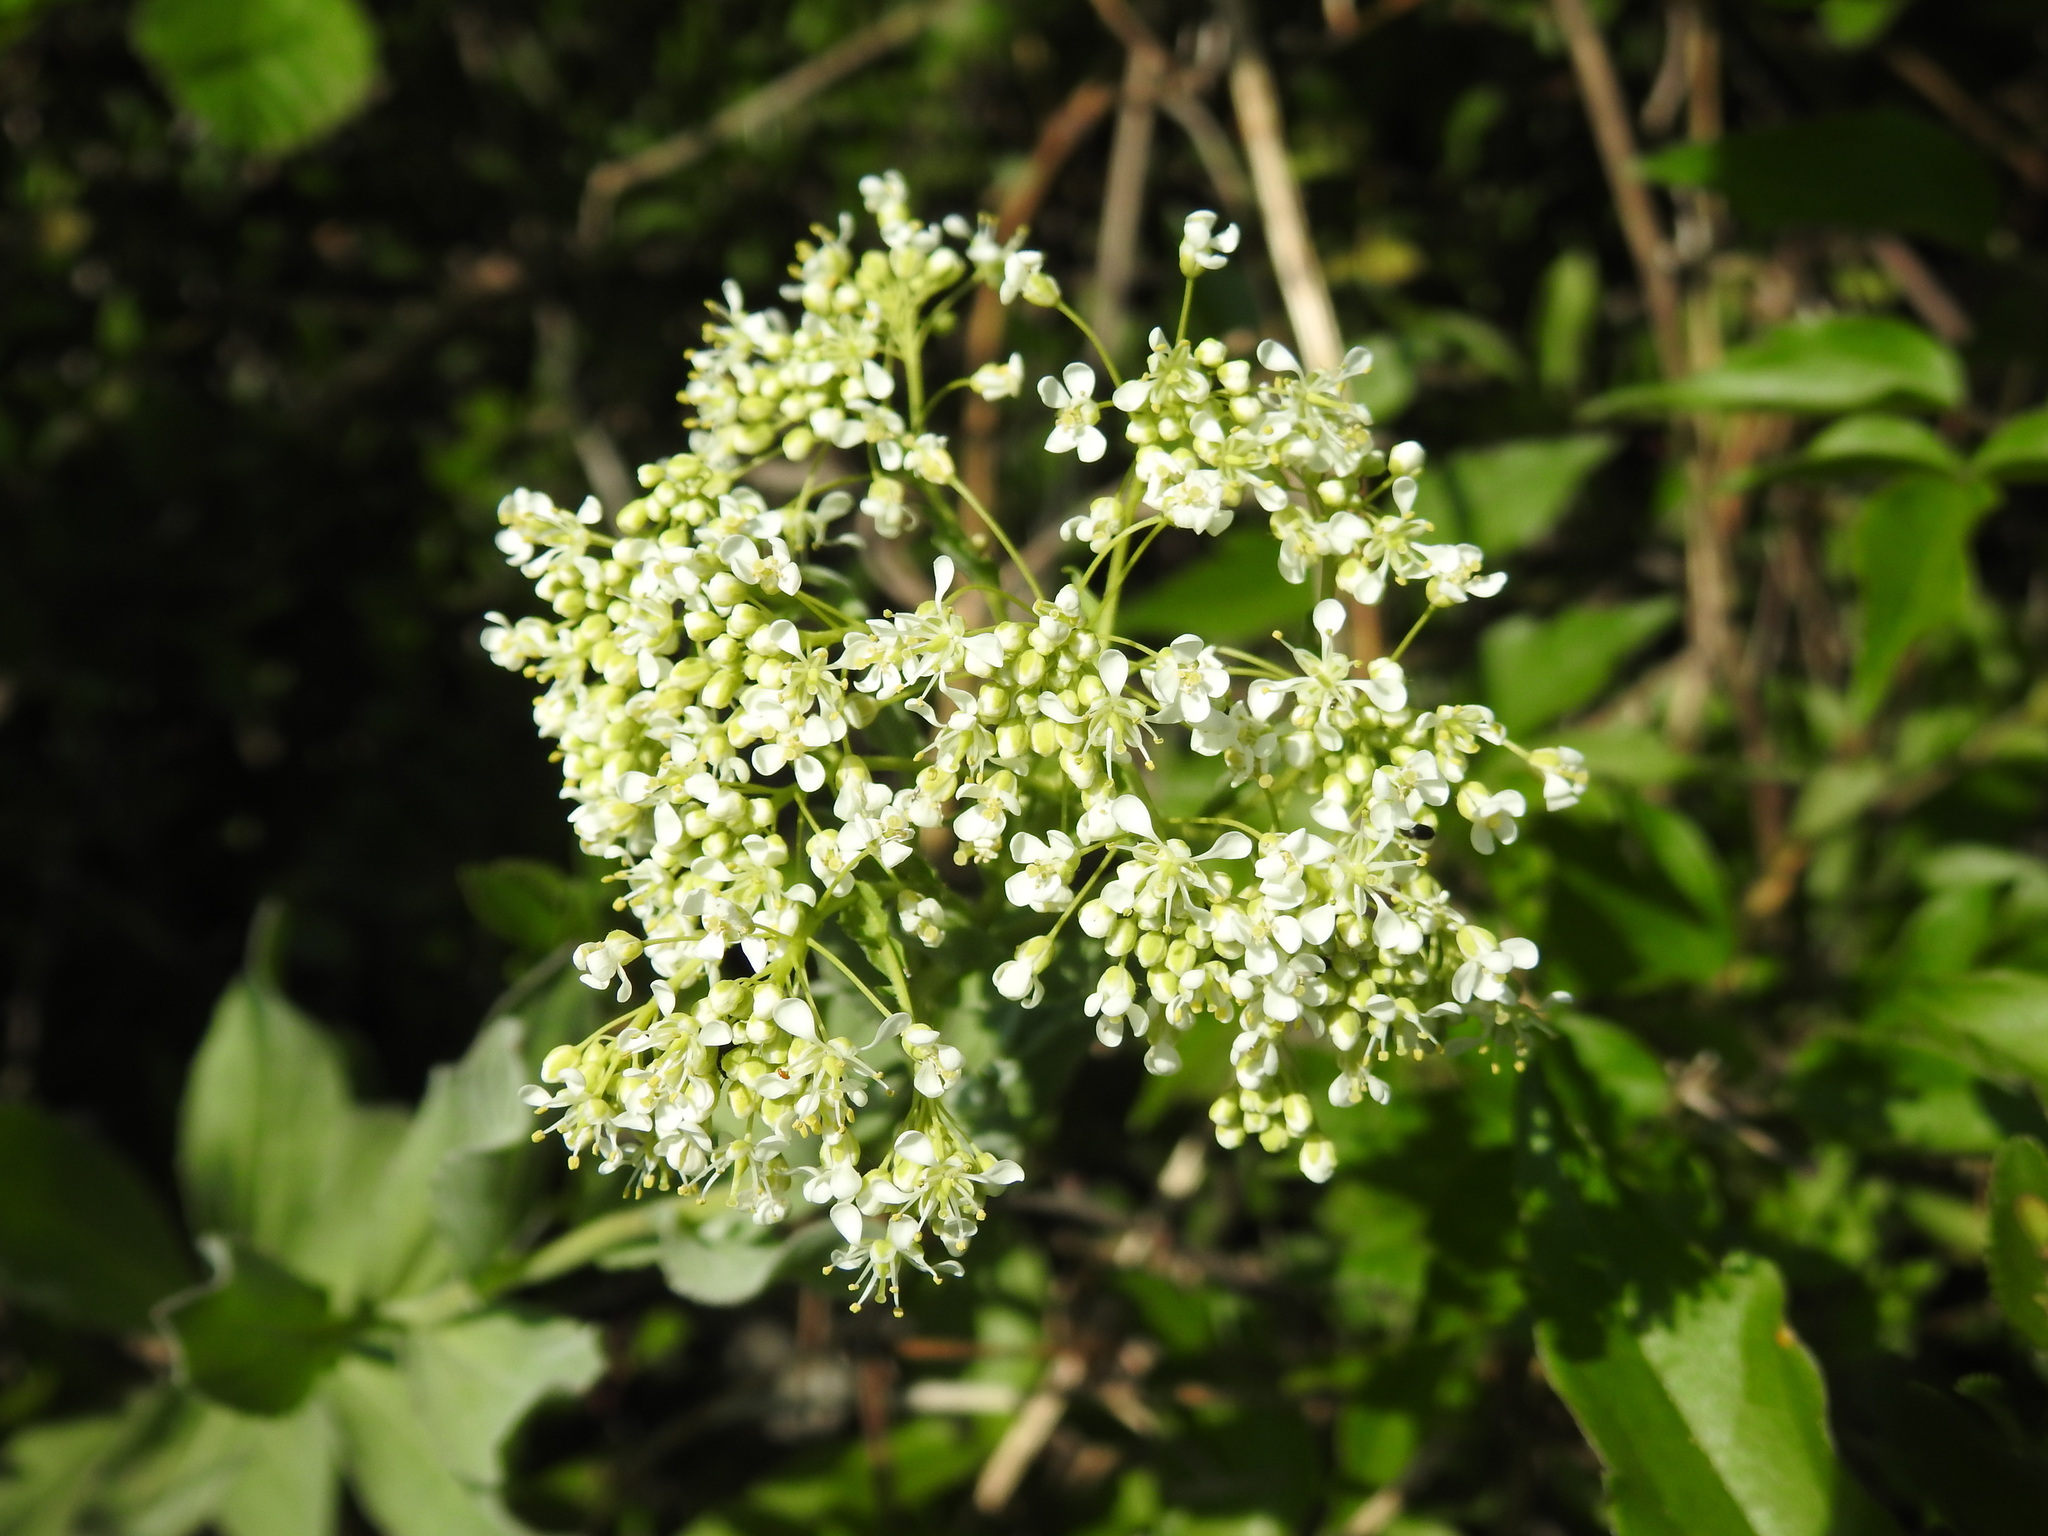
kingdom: Plantae
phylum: Tracheophyta
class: Magnoliopsida
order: Brassicales
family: Brassicaceae
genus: Lepidium
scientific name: Lepidium draba
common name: Hoary cress
